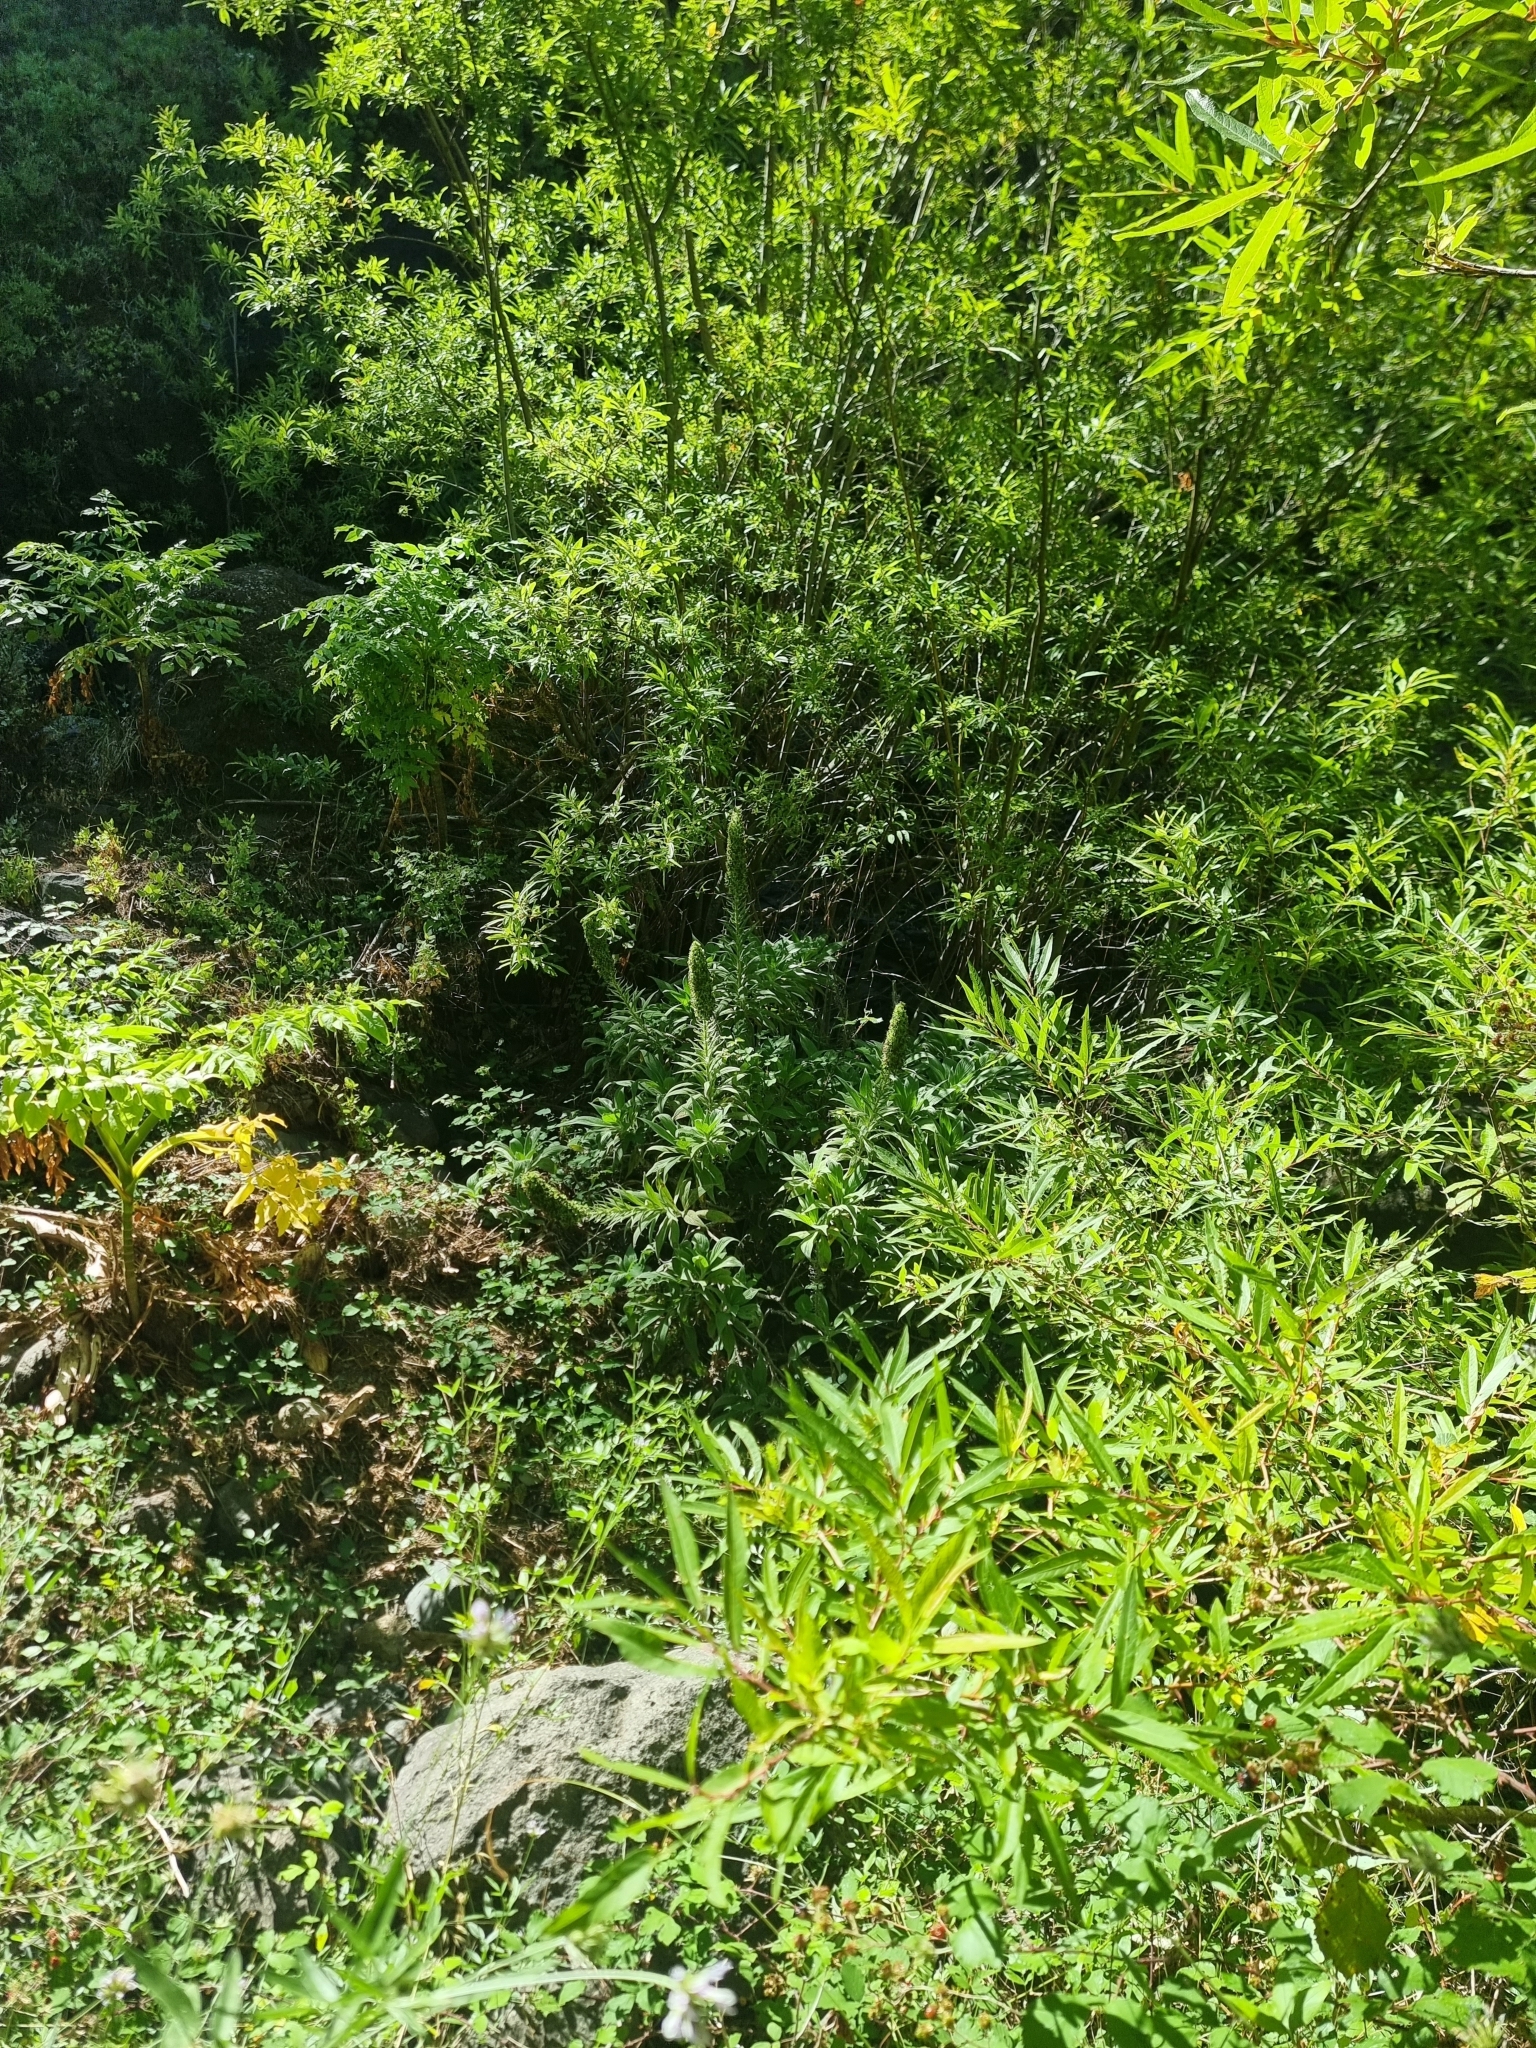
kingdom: Plantae
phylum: Tracheophyta
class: Magnoliopsida
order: Boraginales
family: Boraginaceae
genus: Echium
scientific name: Echium candicans
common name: Pride of madeira
